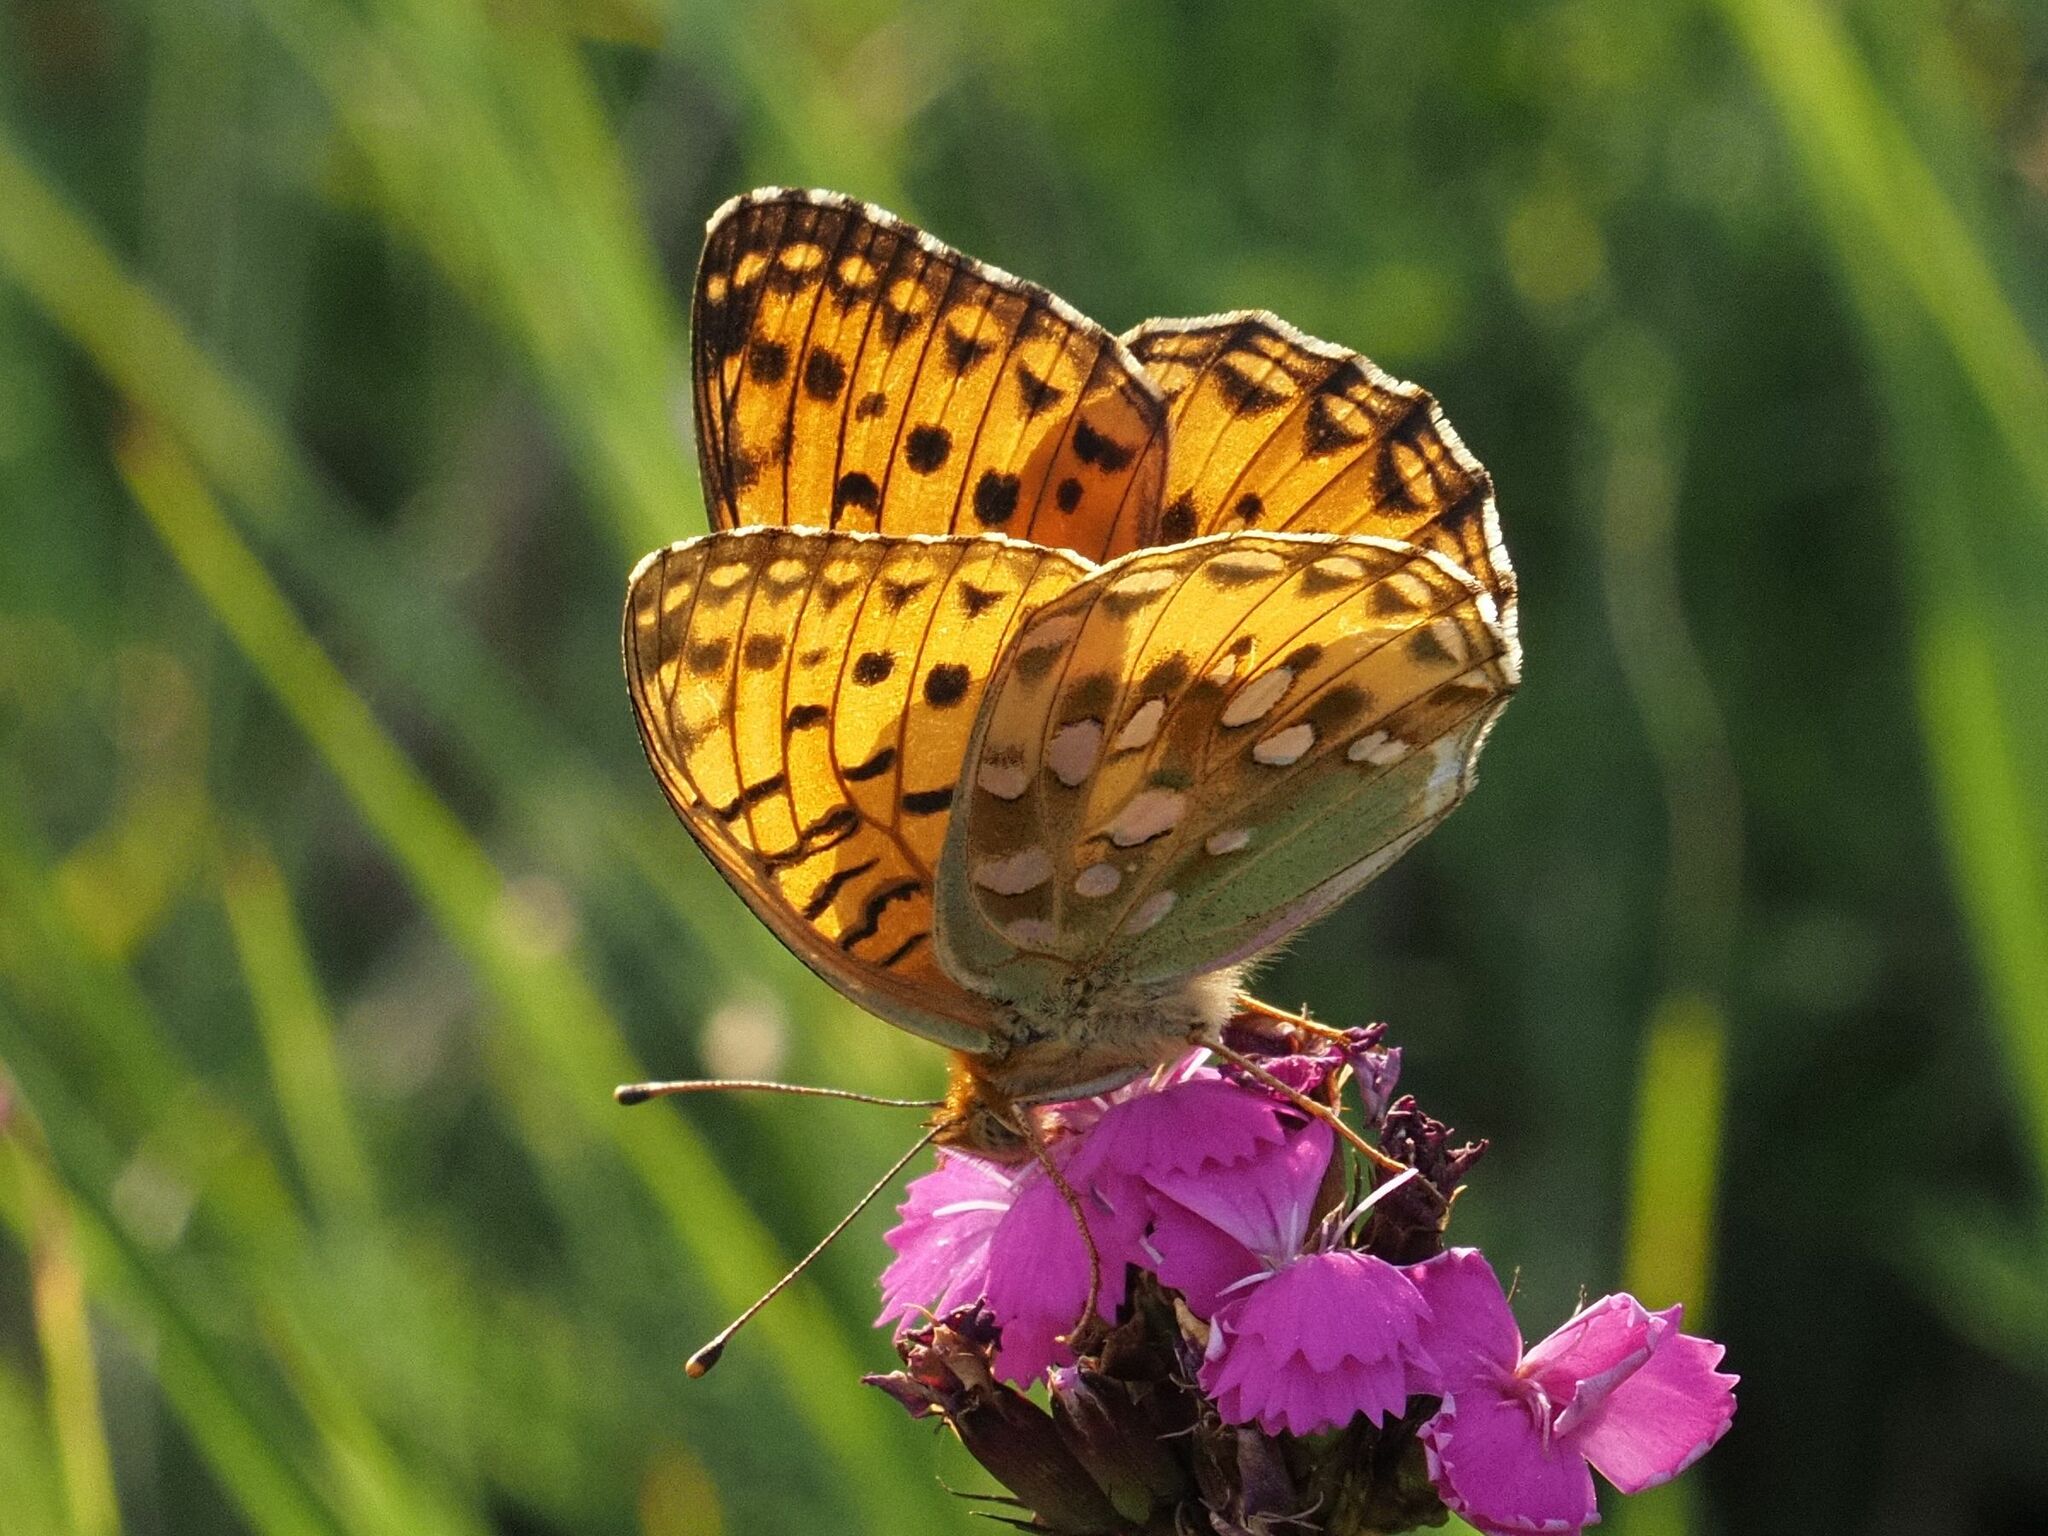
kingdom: Animalia
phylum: Arthropoda
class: Insecta
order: Lepidoptera
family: Nymphalidae
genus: Speyeria
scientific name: Speyeria aglaja
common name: Dark green fritillary
